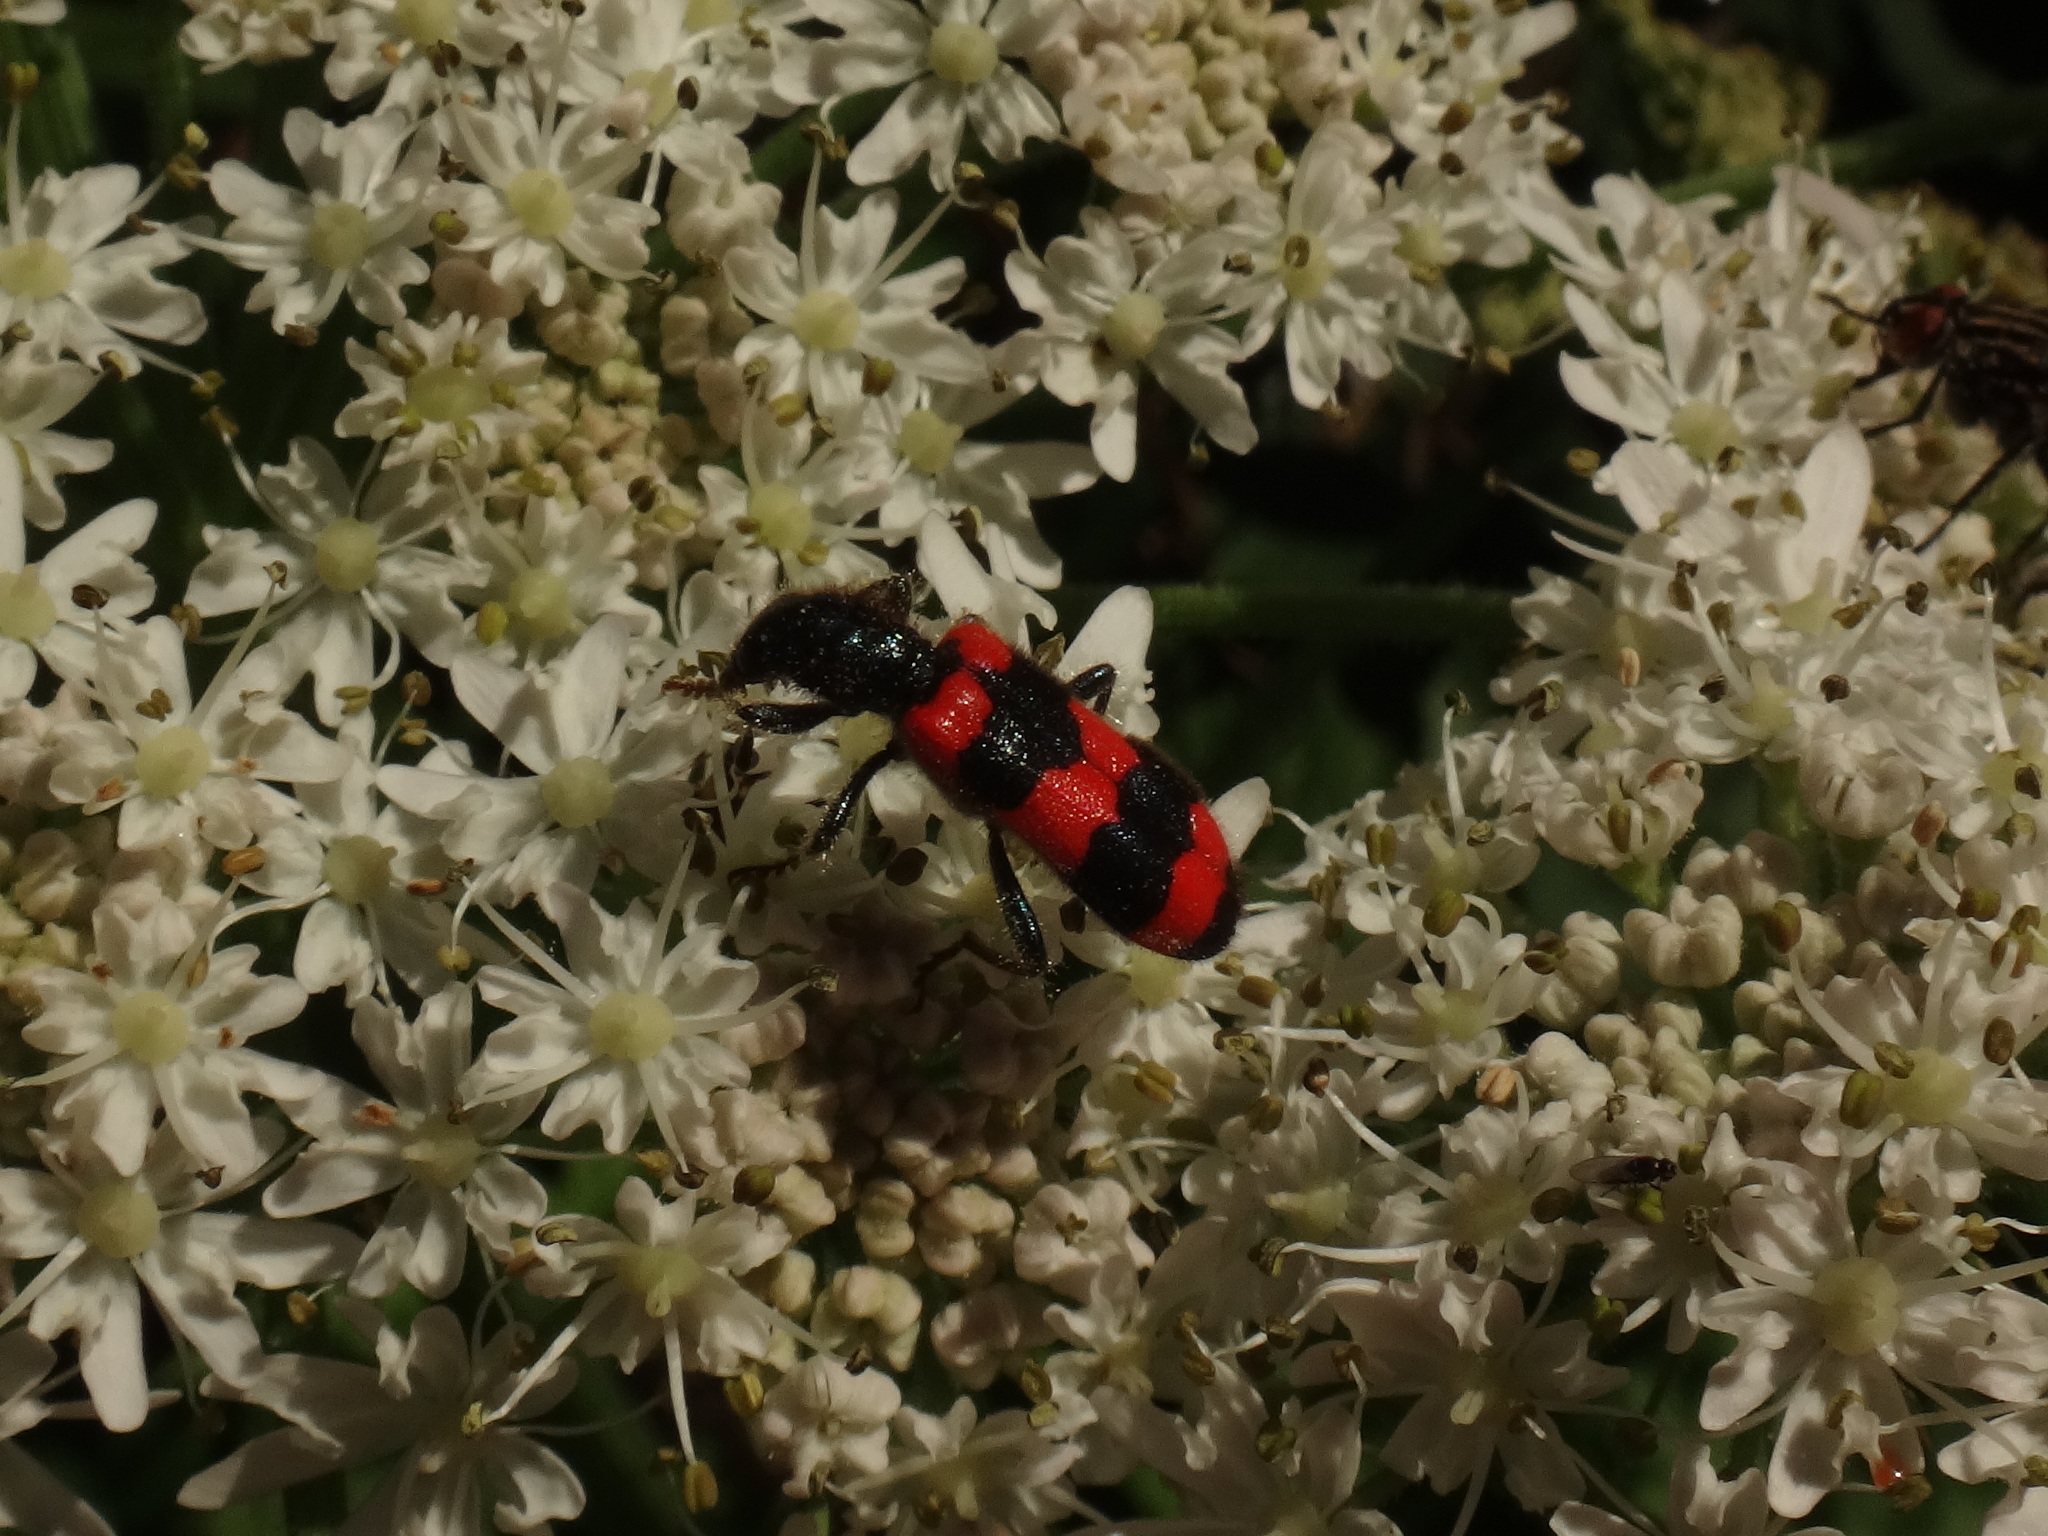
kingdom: Animalia
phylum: Arthropoda
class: Insecta
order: Coleoptera
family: Cleridae
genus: Trichodes
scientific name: Trichodes apiarius
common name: Bee-eating beetle
